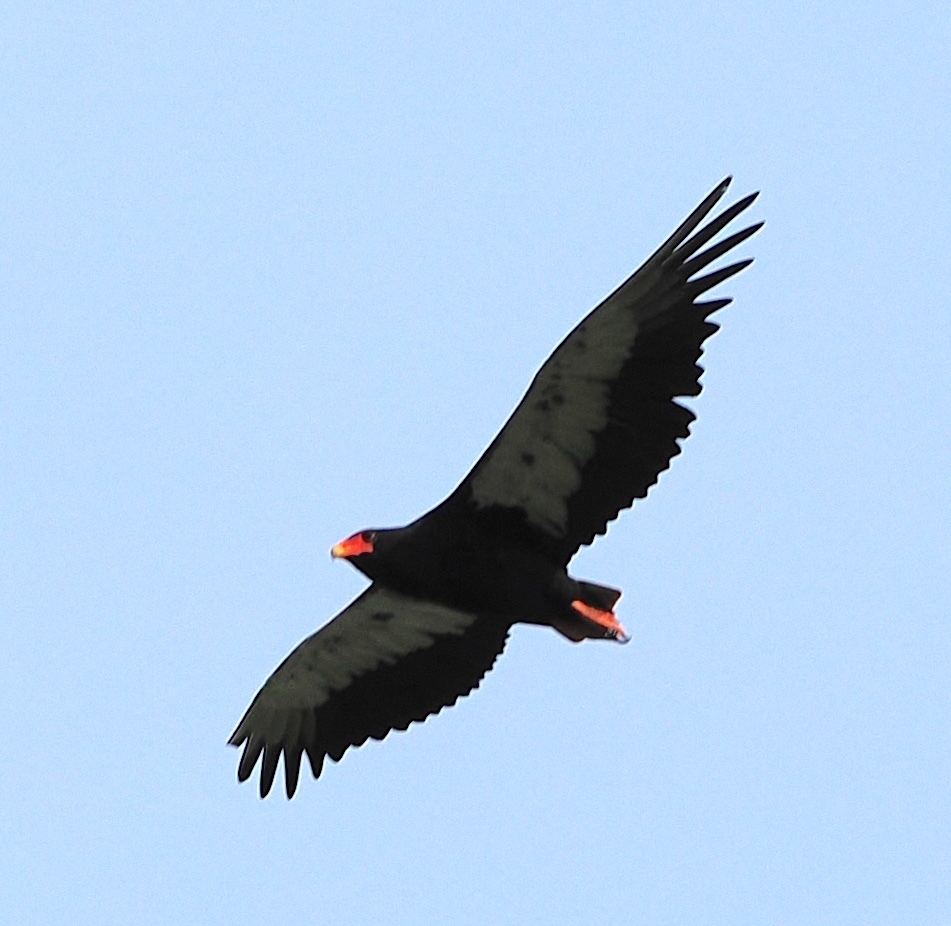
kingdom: Animalia
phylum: Chordata
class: Aves
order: Accipitriformes
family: Accipitridae
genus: Terathopius
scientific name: Terathopius ecaudatus
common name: Bateleur
